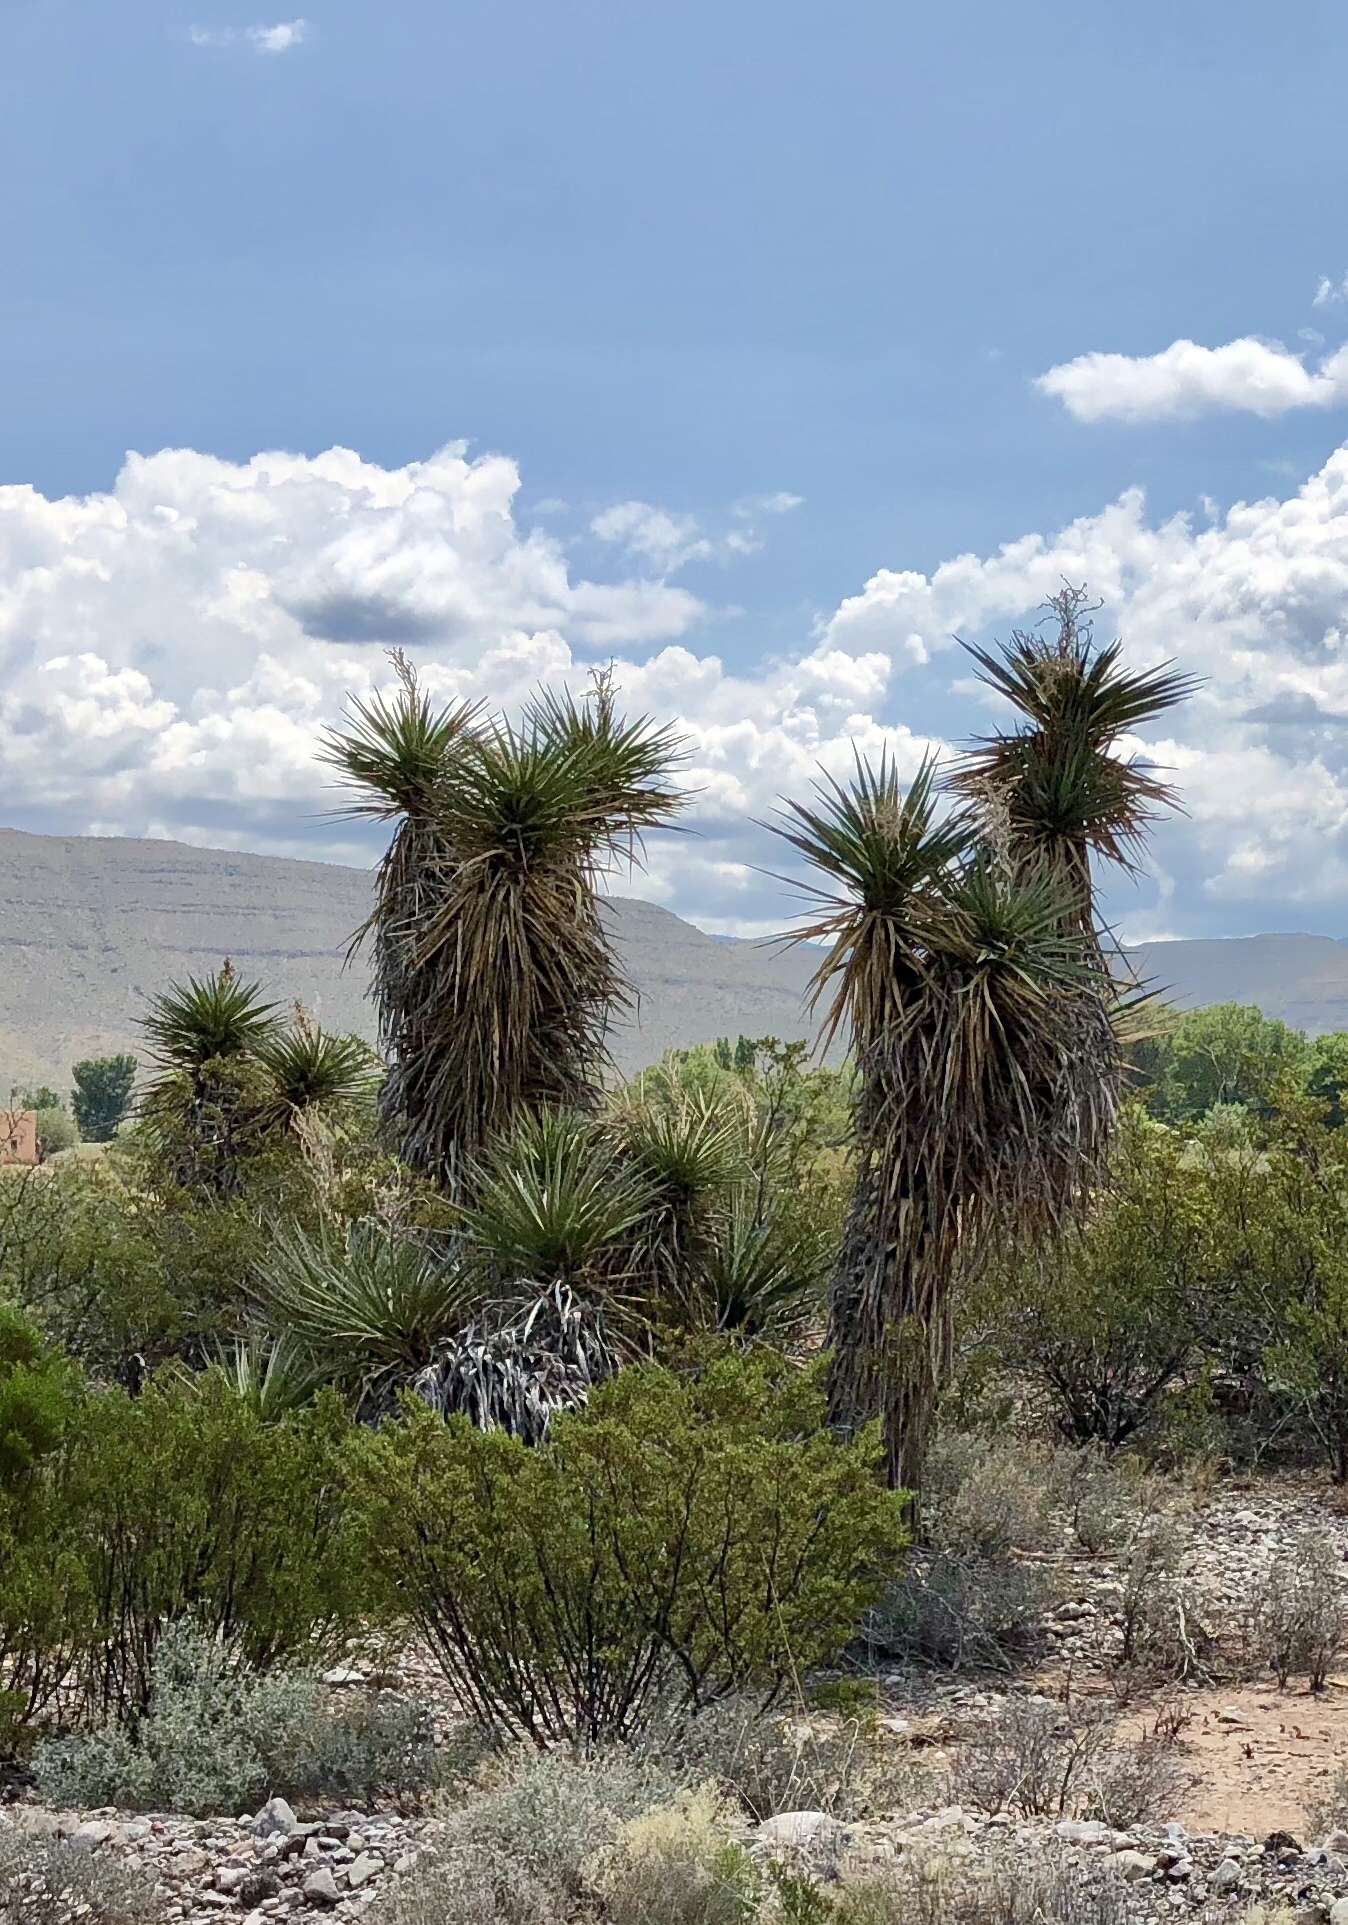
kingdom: Plantae
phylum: Tracheophyta
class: Liliopsida
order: Asparagales
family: Asparagaceae
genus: Yucca
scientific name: Yucca treculiana
